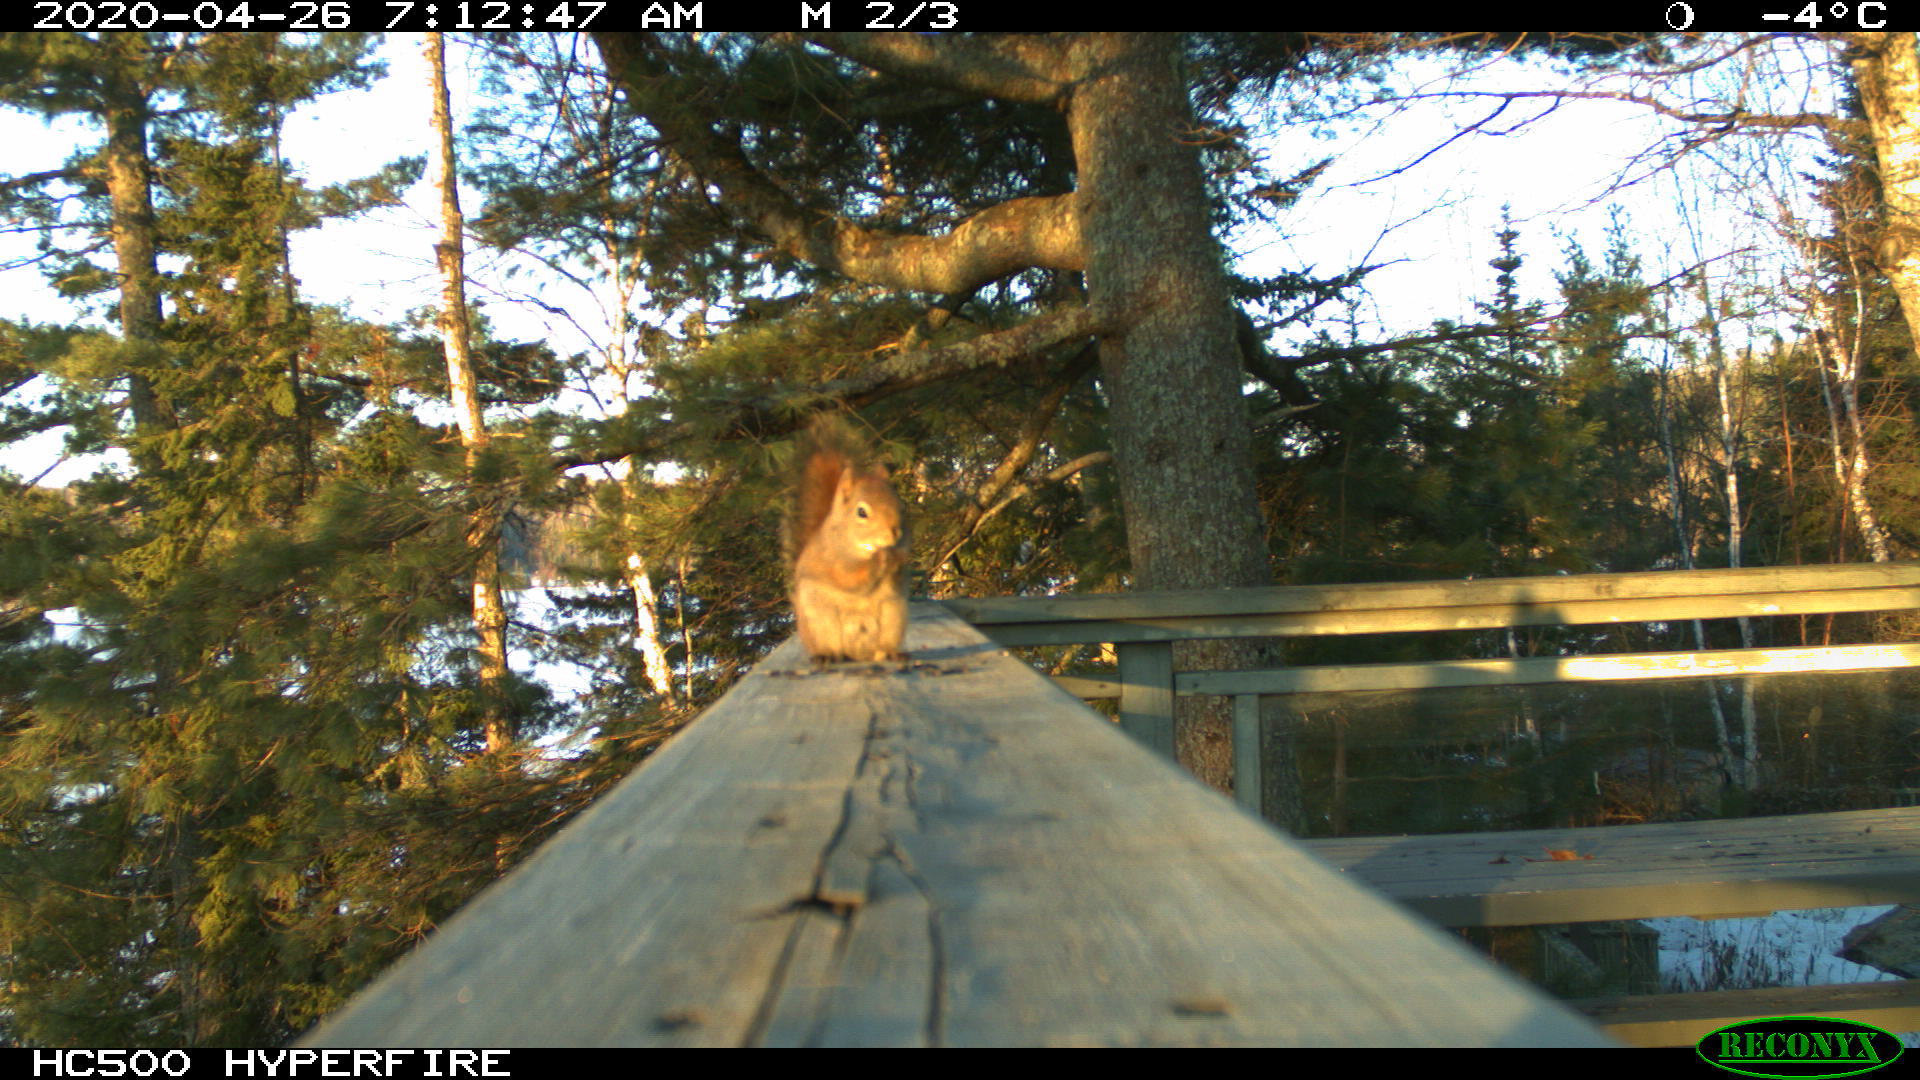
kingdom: Animalia
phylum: Chordata
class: Mammalia
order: Rodentia
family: Sciuridae
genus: Tamiasciurus
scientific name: Tamiasciurus hudsonicus
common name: Red squirrel
